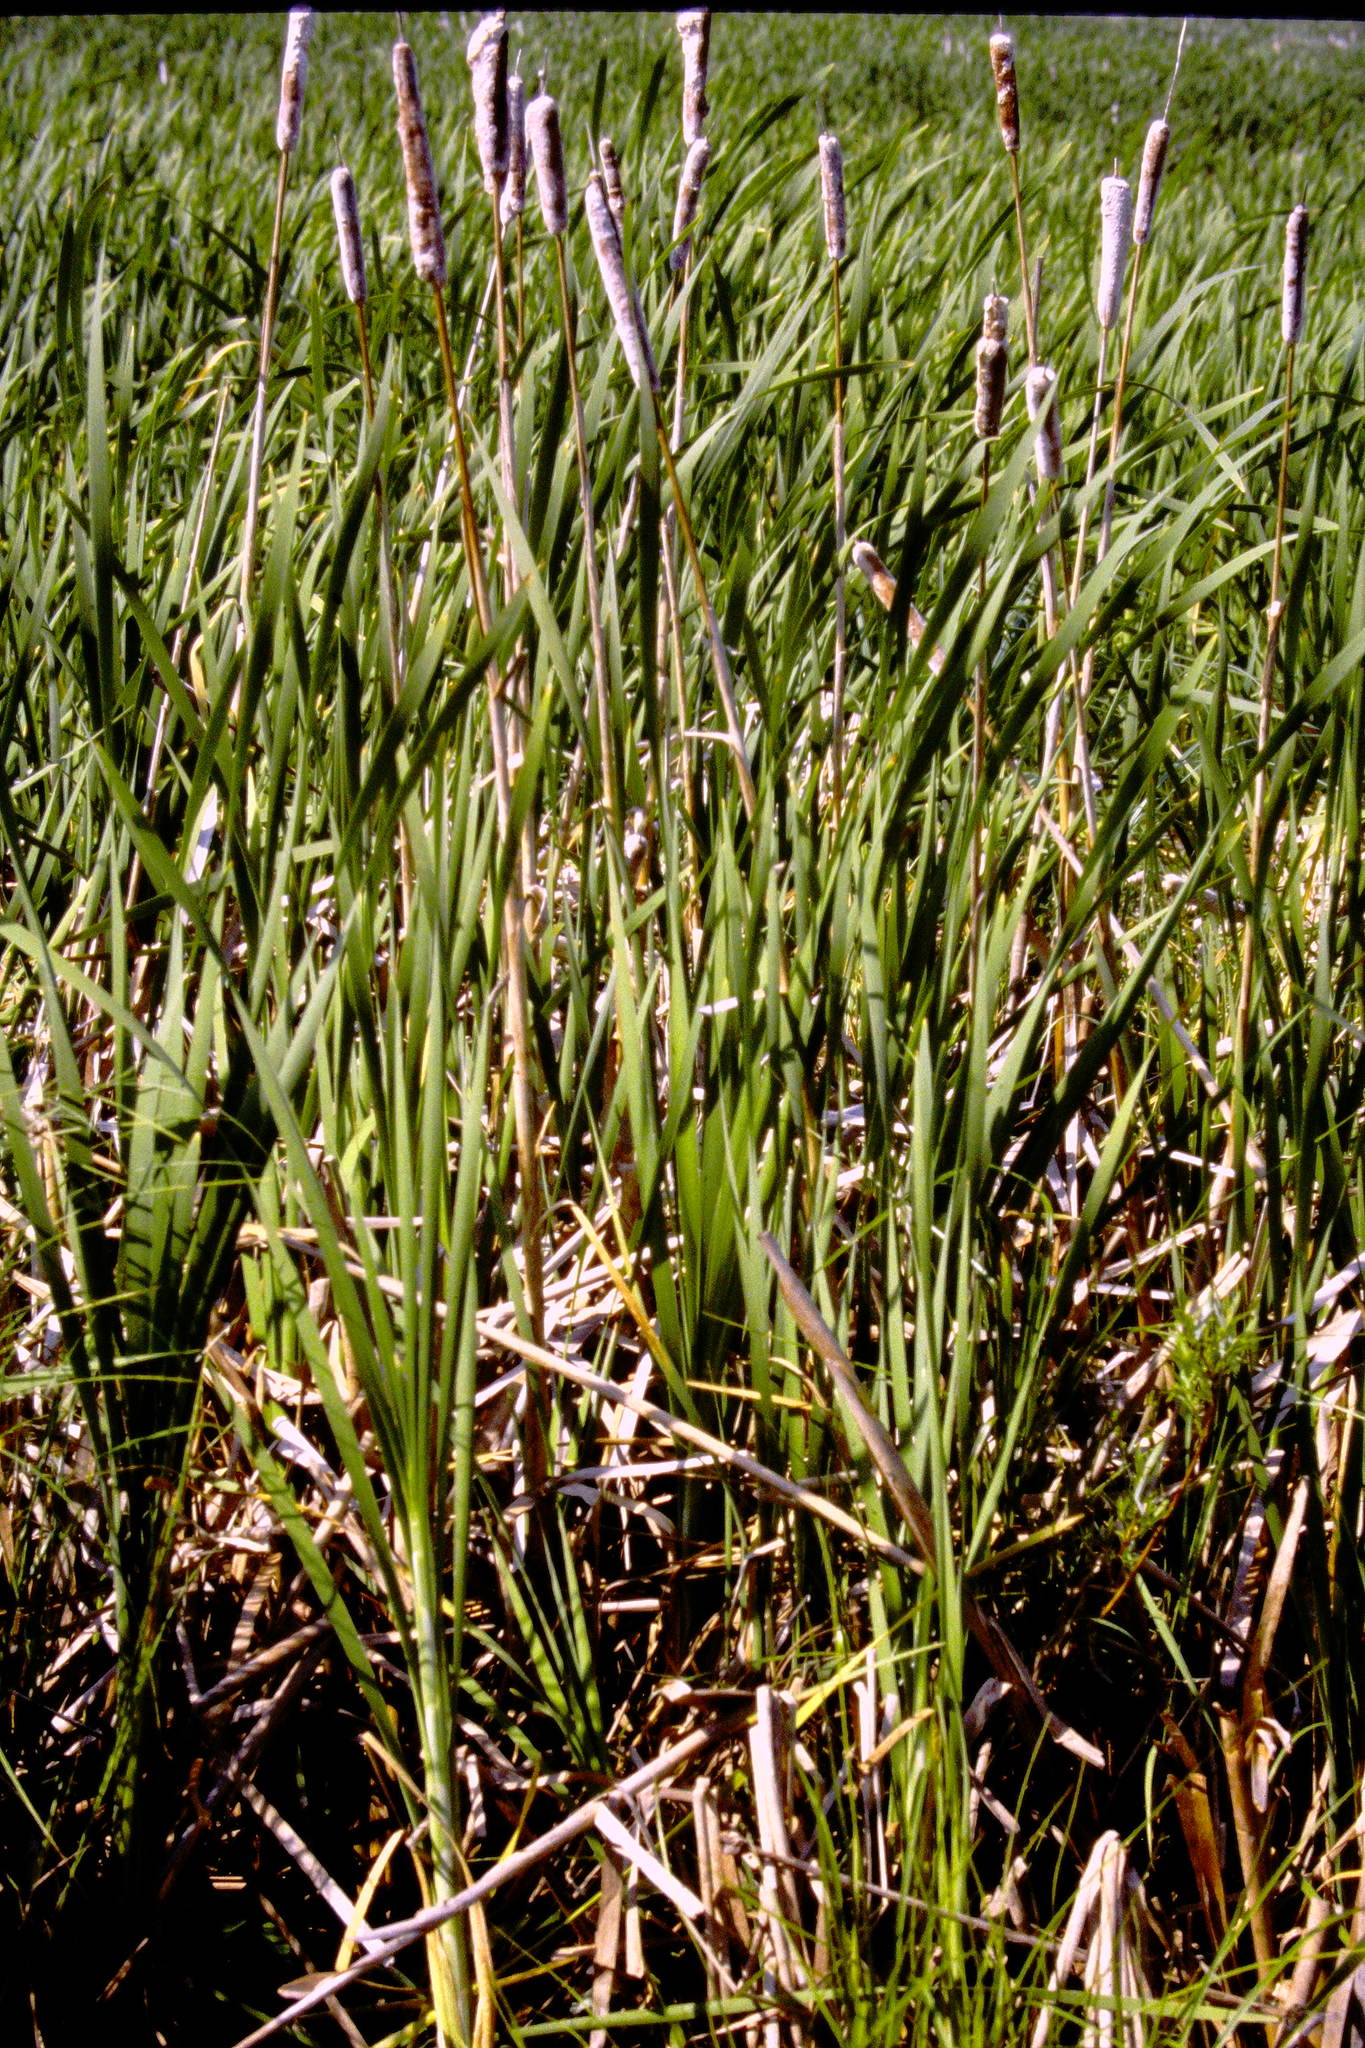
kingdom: Plantae
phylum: Tracheophyta
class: Liliopsida
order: Poales
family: Typhaceae
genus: Typha
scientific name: Typha latifolia
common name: Broadleaf cattail
